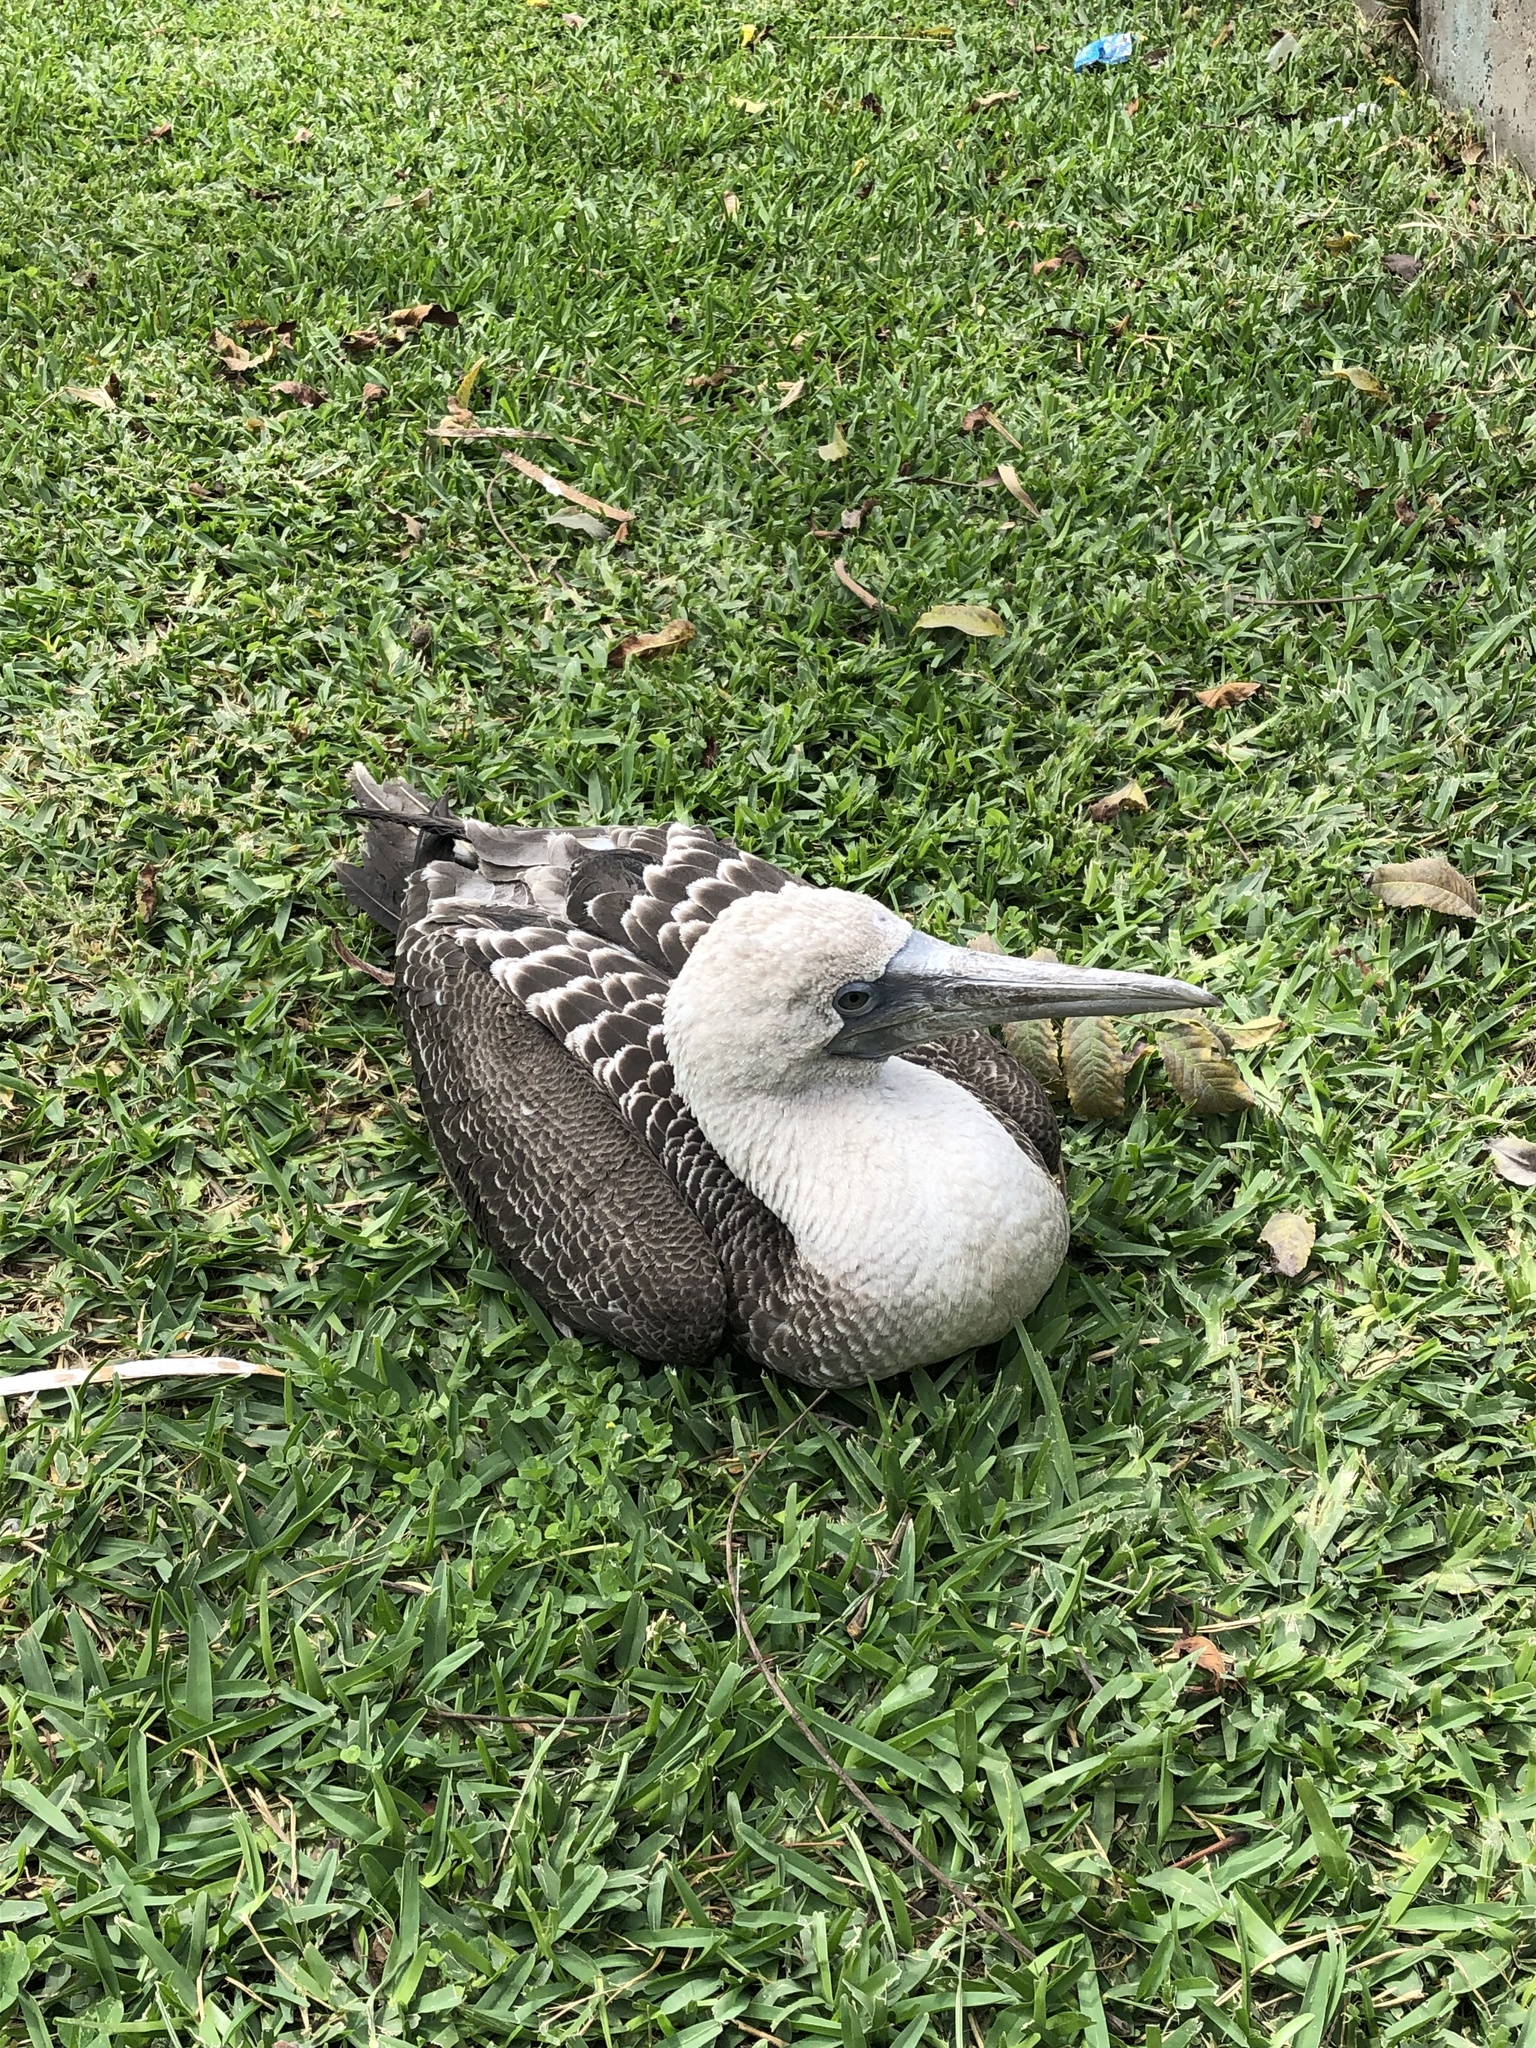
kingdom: Animalia
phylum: Chordata
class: Aves
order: Suliformes
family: Sulidae
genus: Sula
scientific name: Sula variegata
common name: Peruvian booby
